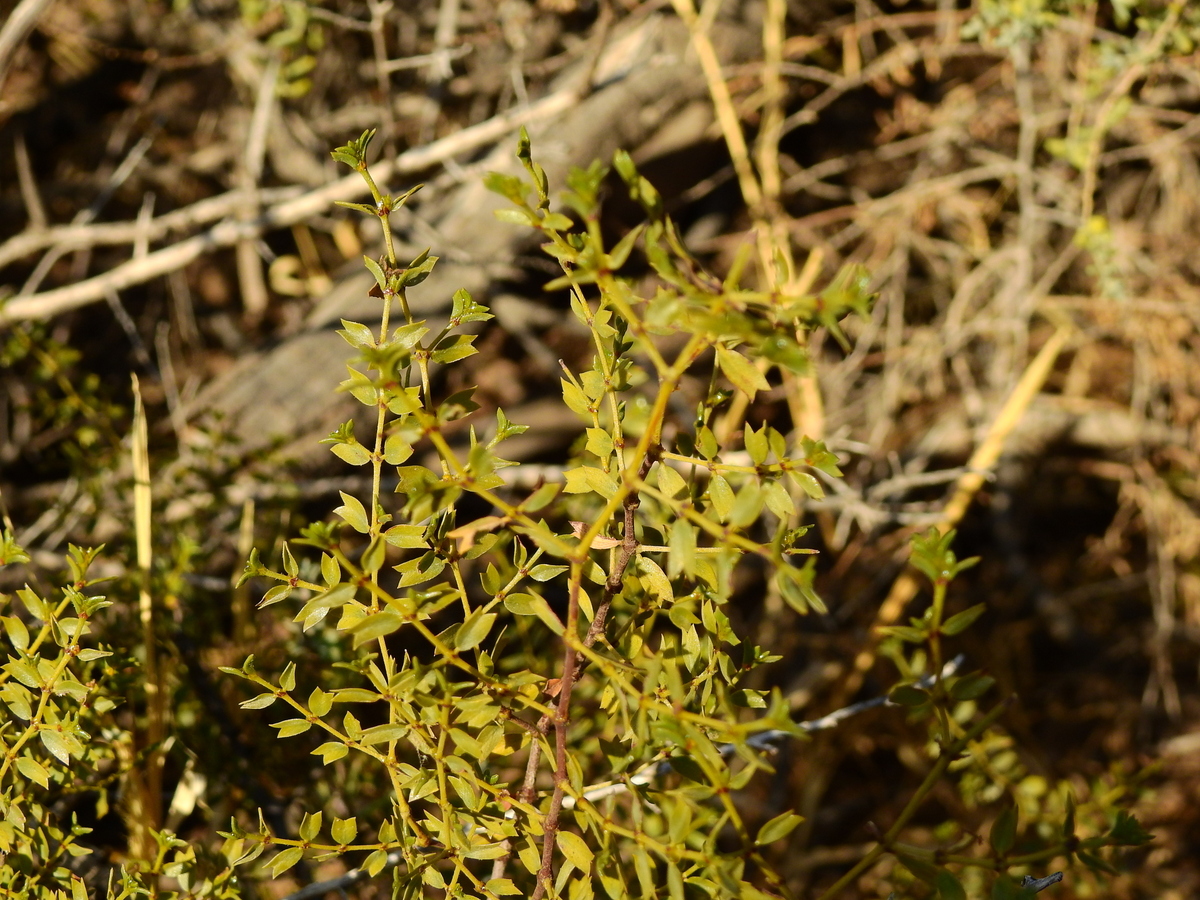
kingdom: Plantae
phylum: Tracheophyta
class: Magnoliopsida
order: Zygophyllales
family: Zygophyllaceae
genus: Larrea
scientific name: Larrea cuneifolia
